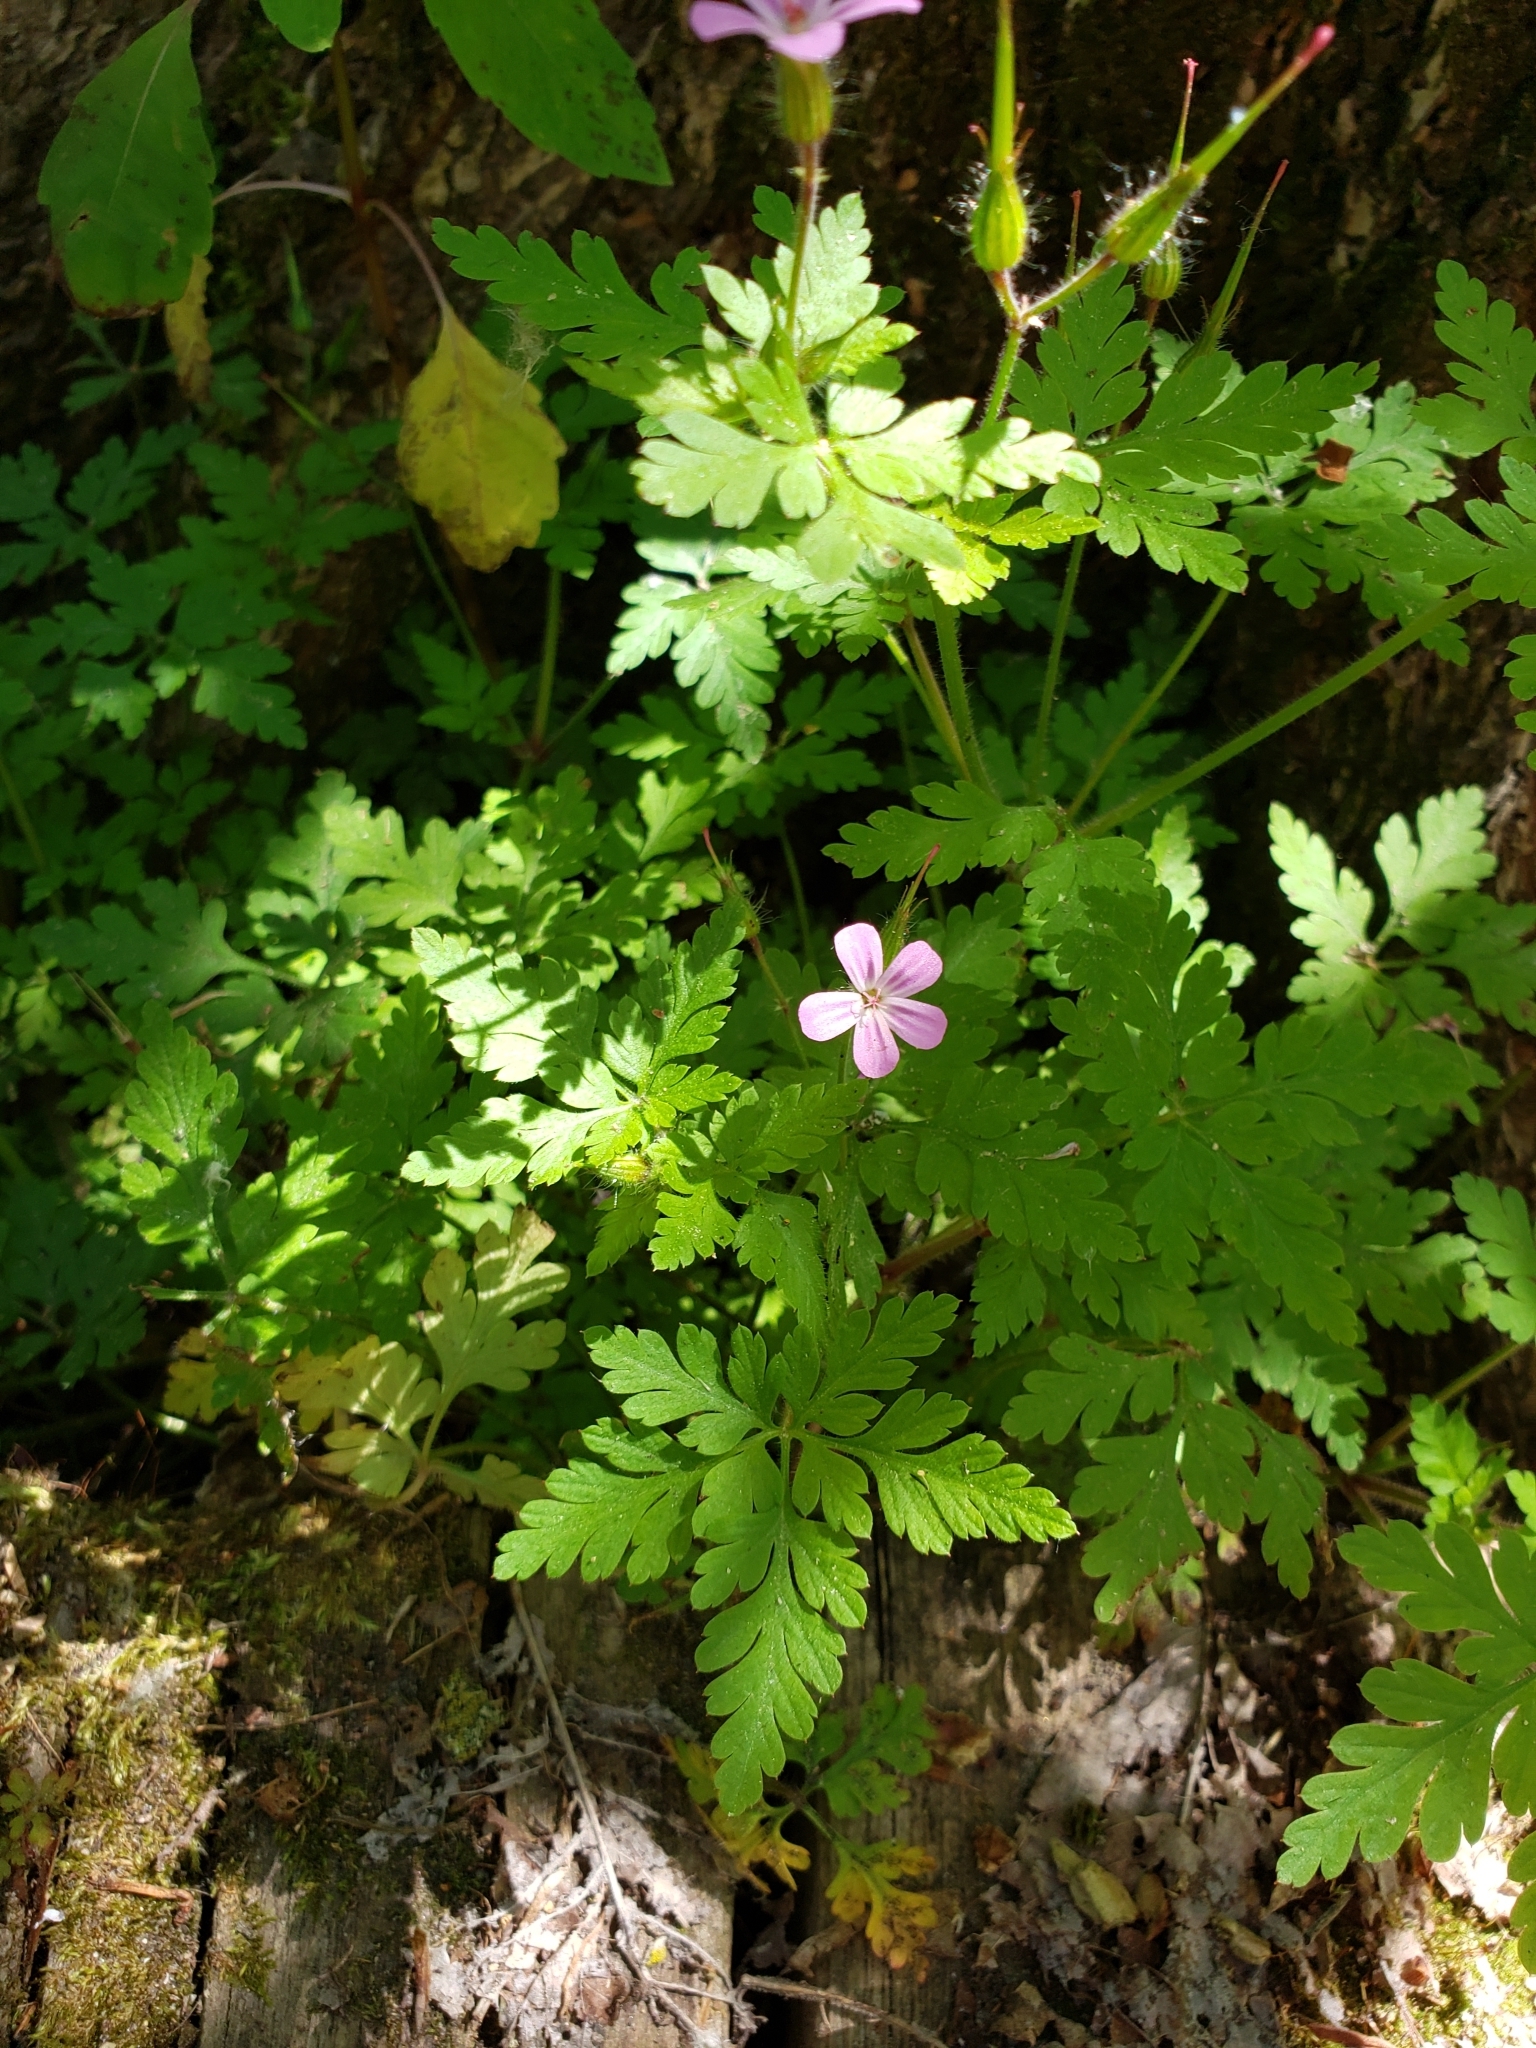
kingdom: Plantae
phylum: Tracheophyta
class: Magnoliopsida
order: Geraniales
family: Geraniaceae
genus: Geranium
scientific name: Geranium robertianum
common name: Herb-robert
